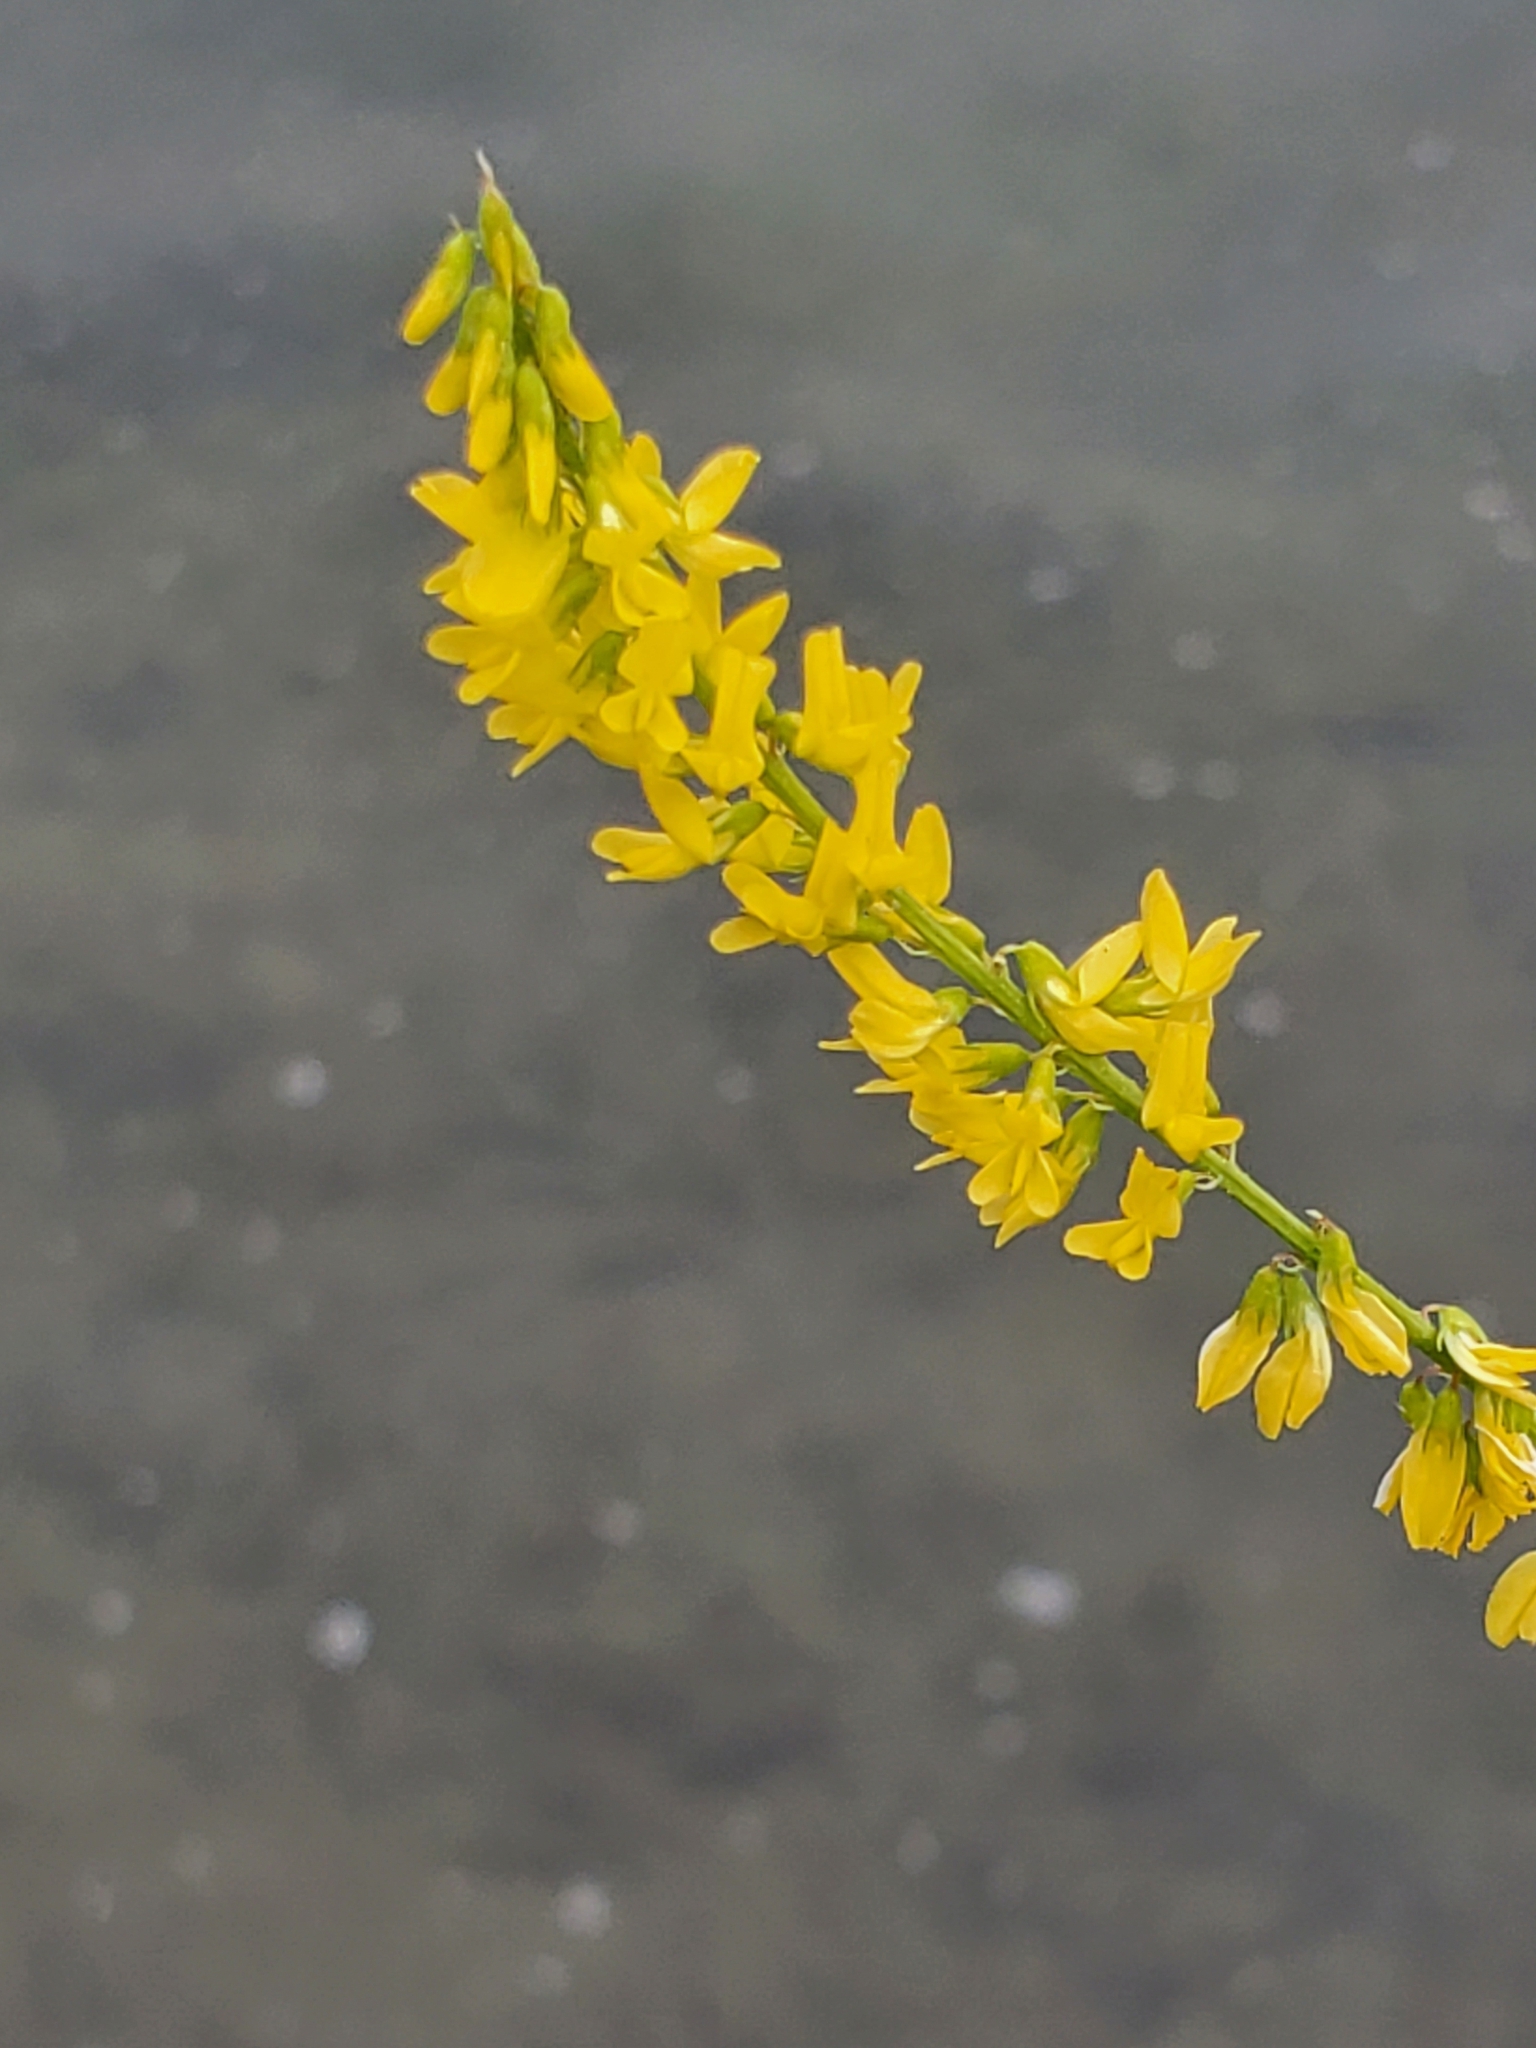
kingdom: Plantae
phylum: Tracheophyta
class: Magnoliopsida
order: Fabales
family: Fabaceae
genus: Melilotus
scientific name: Melilotus officinalis
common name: Sweetclover
